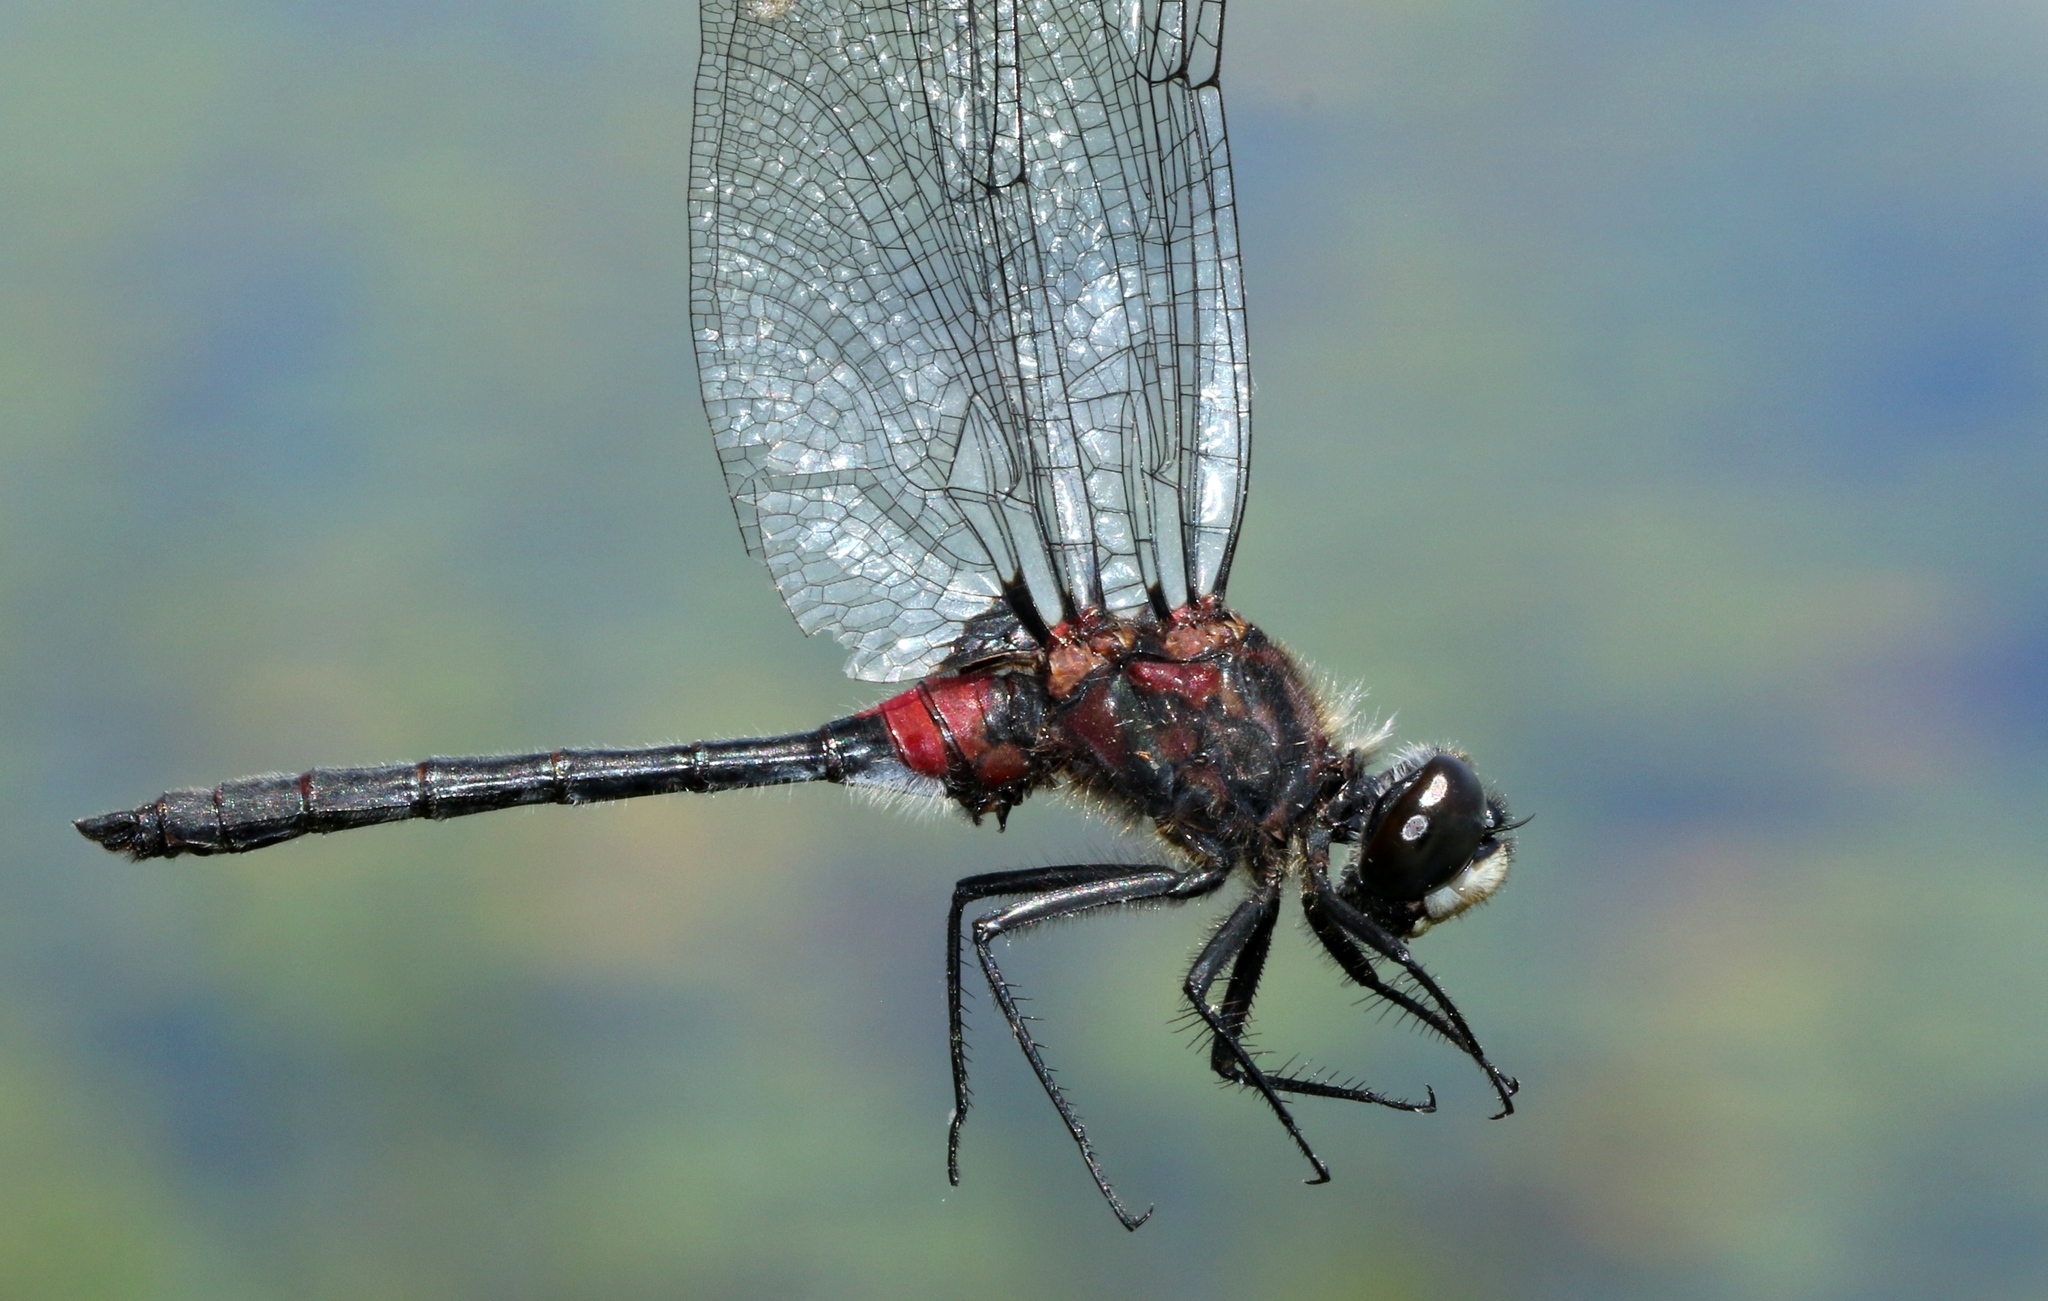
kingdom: Animalia
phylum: Arthropoda
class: Insecta
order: Odonata
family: Libellulidae
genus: Leucorrhinia
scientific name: Leucorrhinia glacialis
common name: Crimson-ringed whiteface
